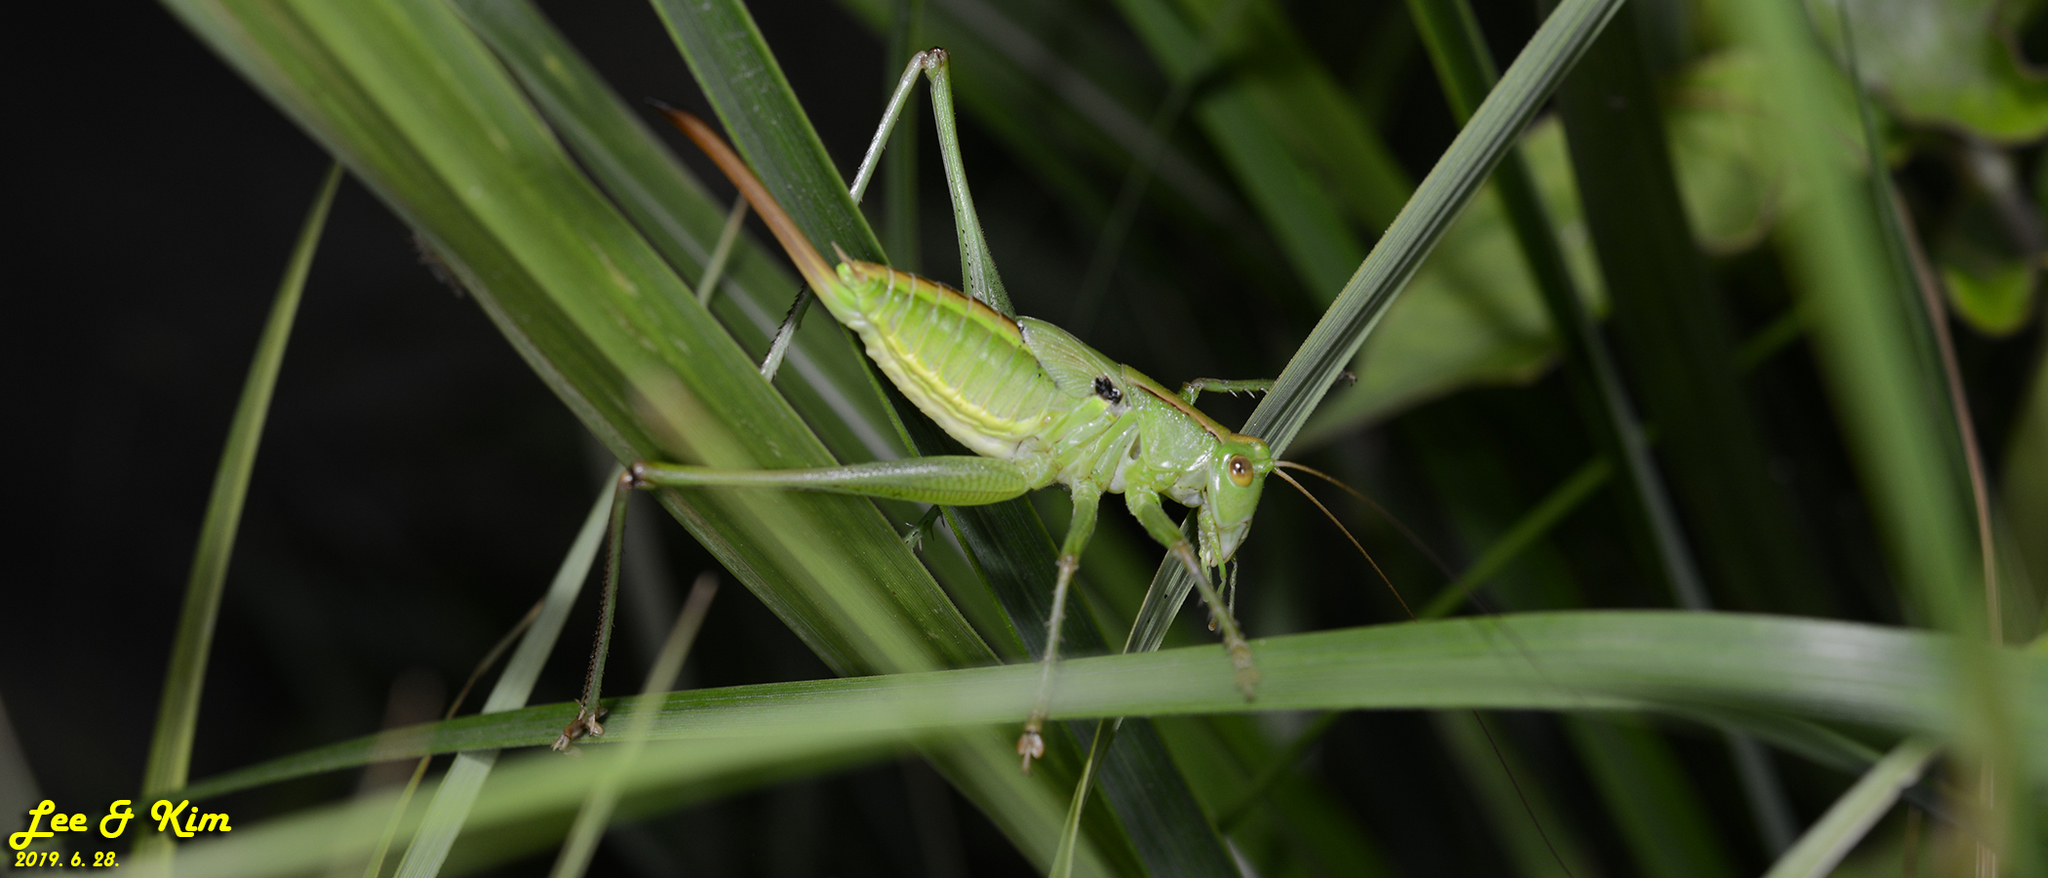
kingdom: Animalia
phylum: Arthropoda
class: Insecta
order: Orthoptera
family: Tettigoniidae
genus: Gampsocleis
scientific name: Gampsocleis ussuriensis
